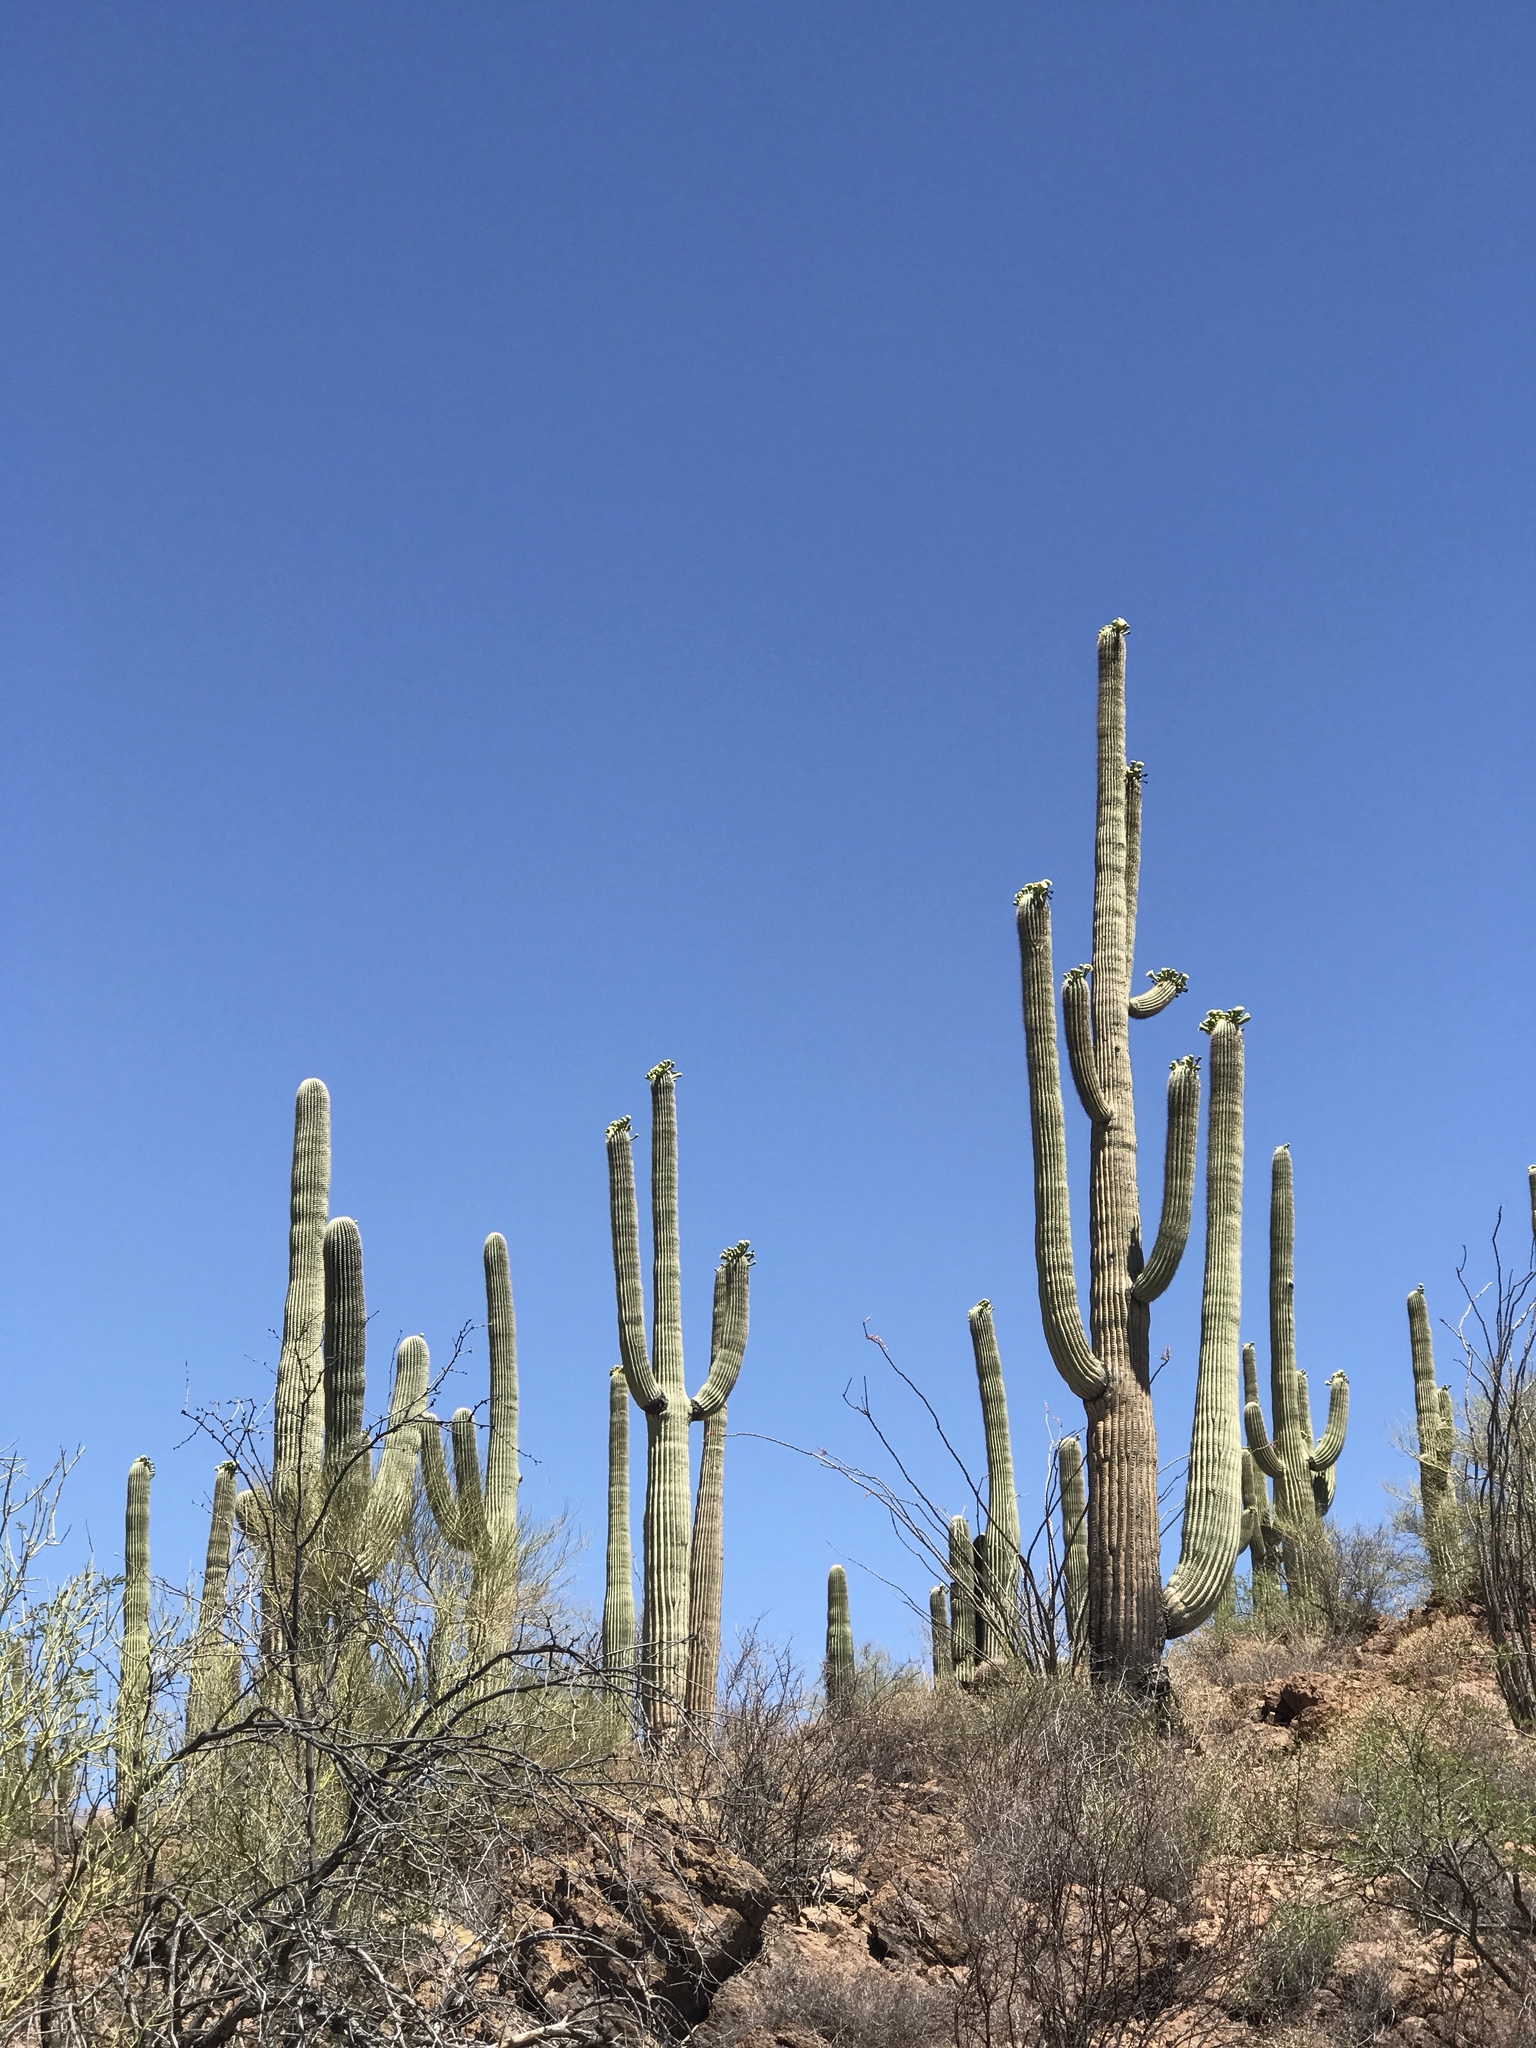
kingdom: Plantae
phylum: Tracheophyta
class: Magnoliopsida
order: Caryophyllales
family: Cactaceae
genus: Carnegiea
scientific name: Carnegiea gigantea
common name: Saguaro
